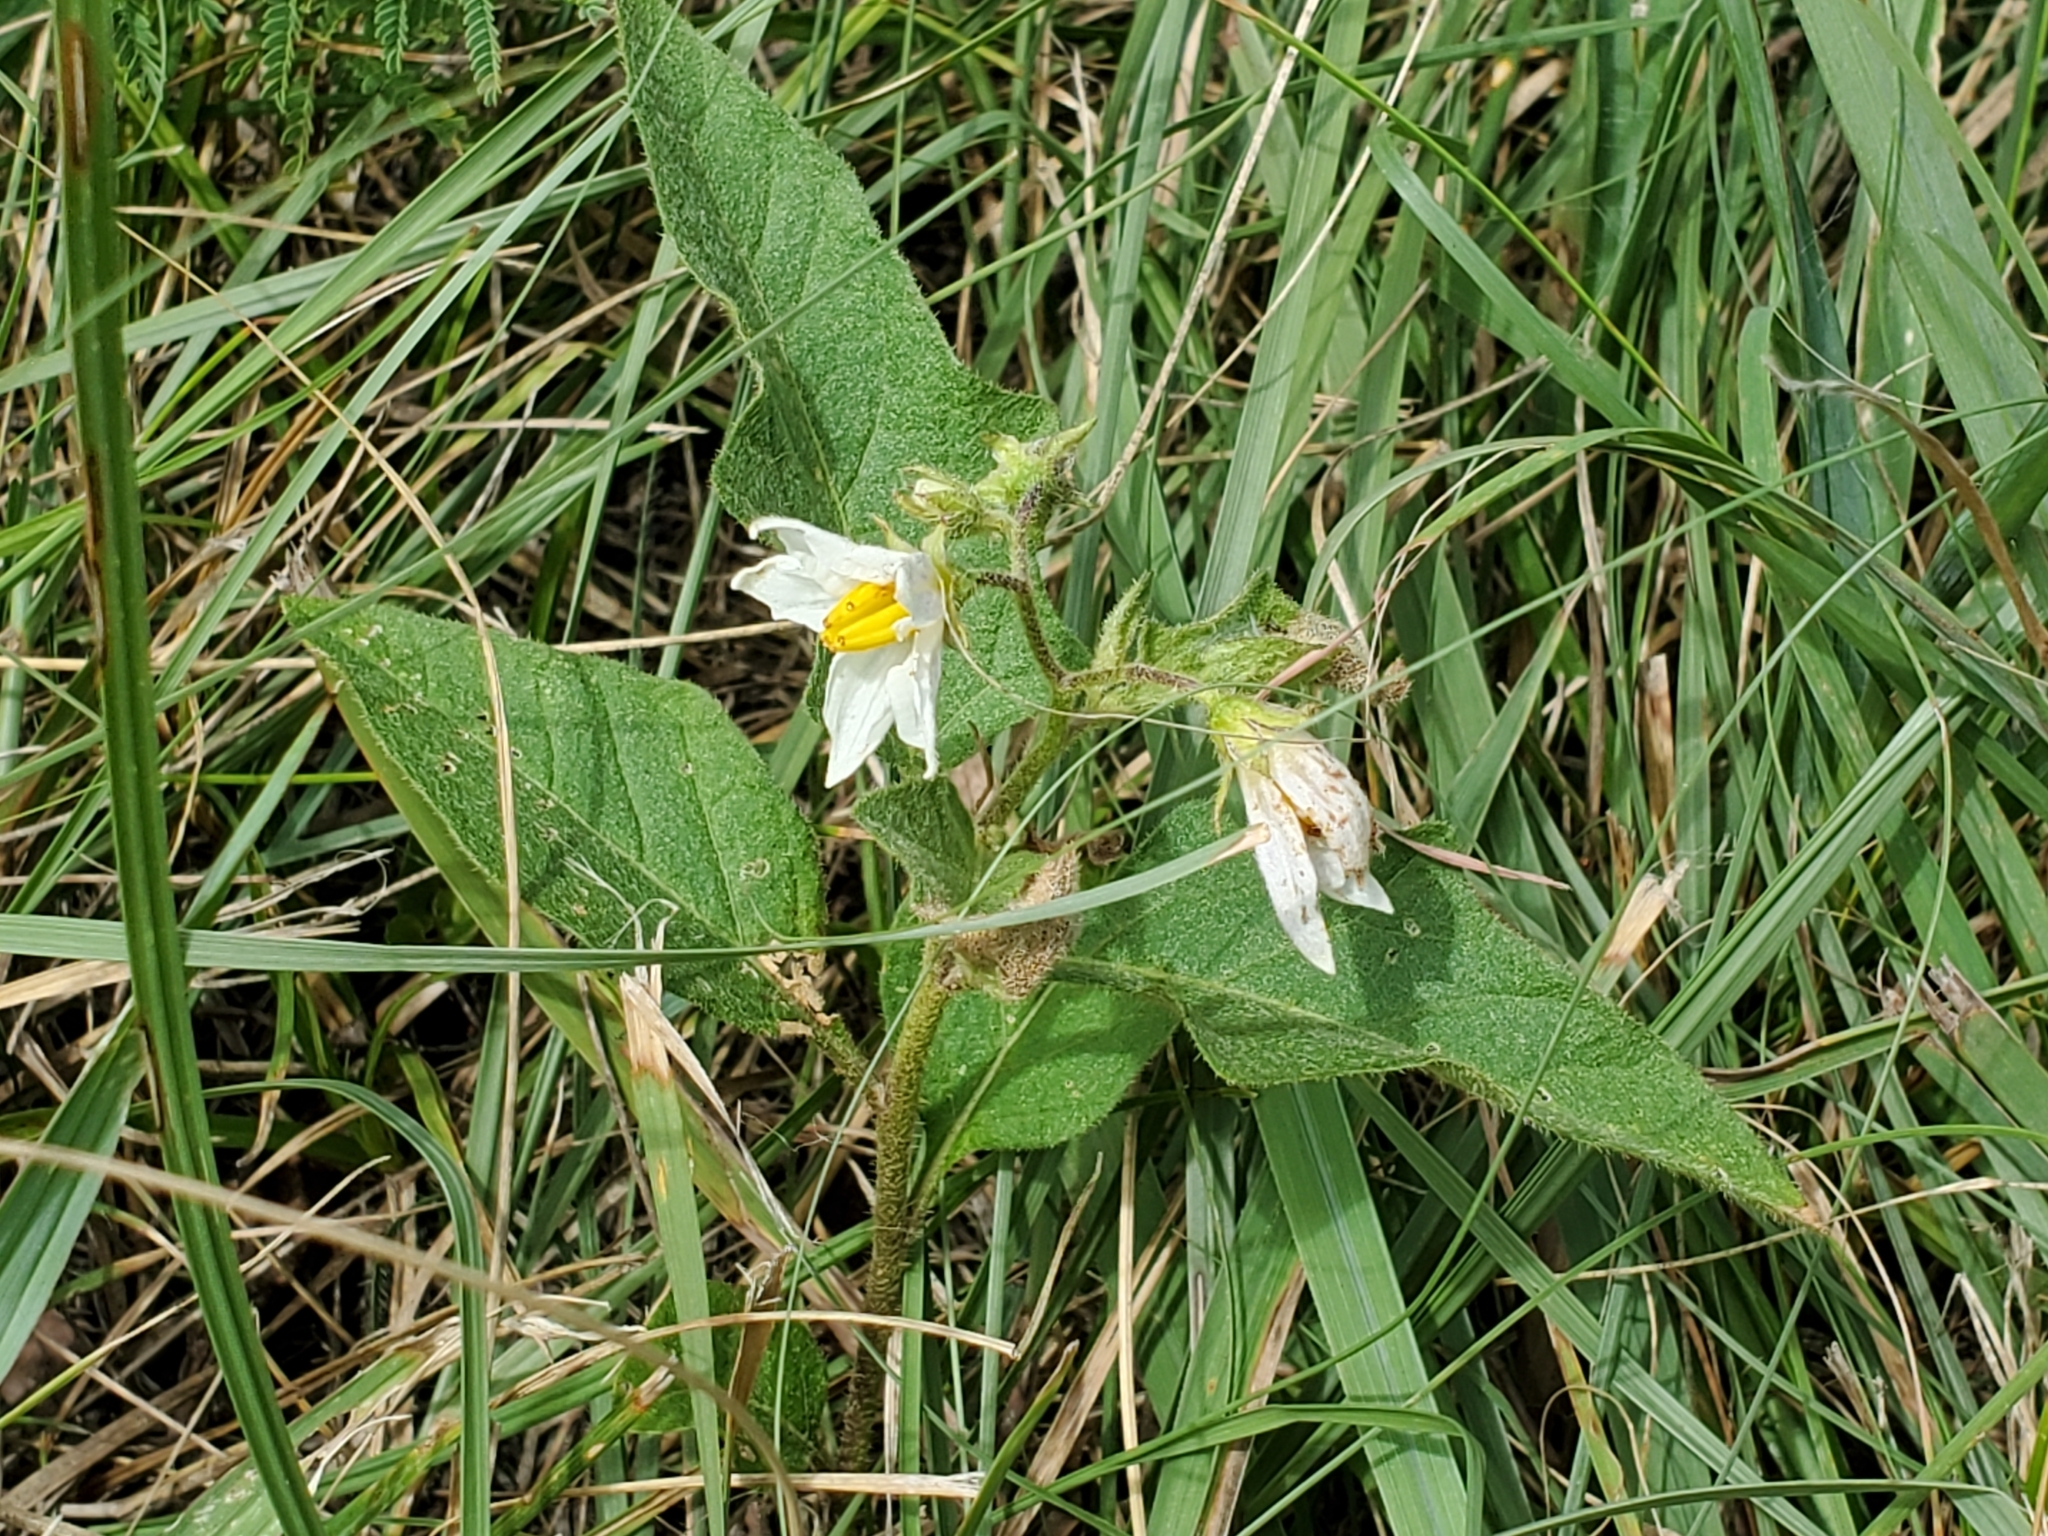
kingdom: Plantae
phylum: Tracheophyta
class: Magnoliopsida
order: Solanales
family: Solanaceae
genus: Solanum
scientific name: Solanum carolinense
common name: Horse-nettle
